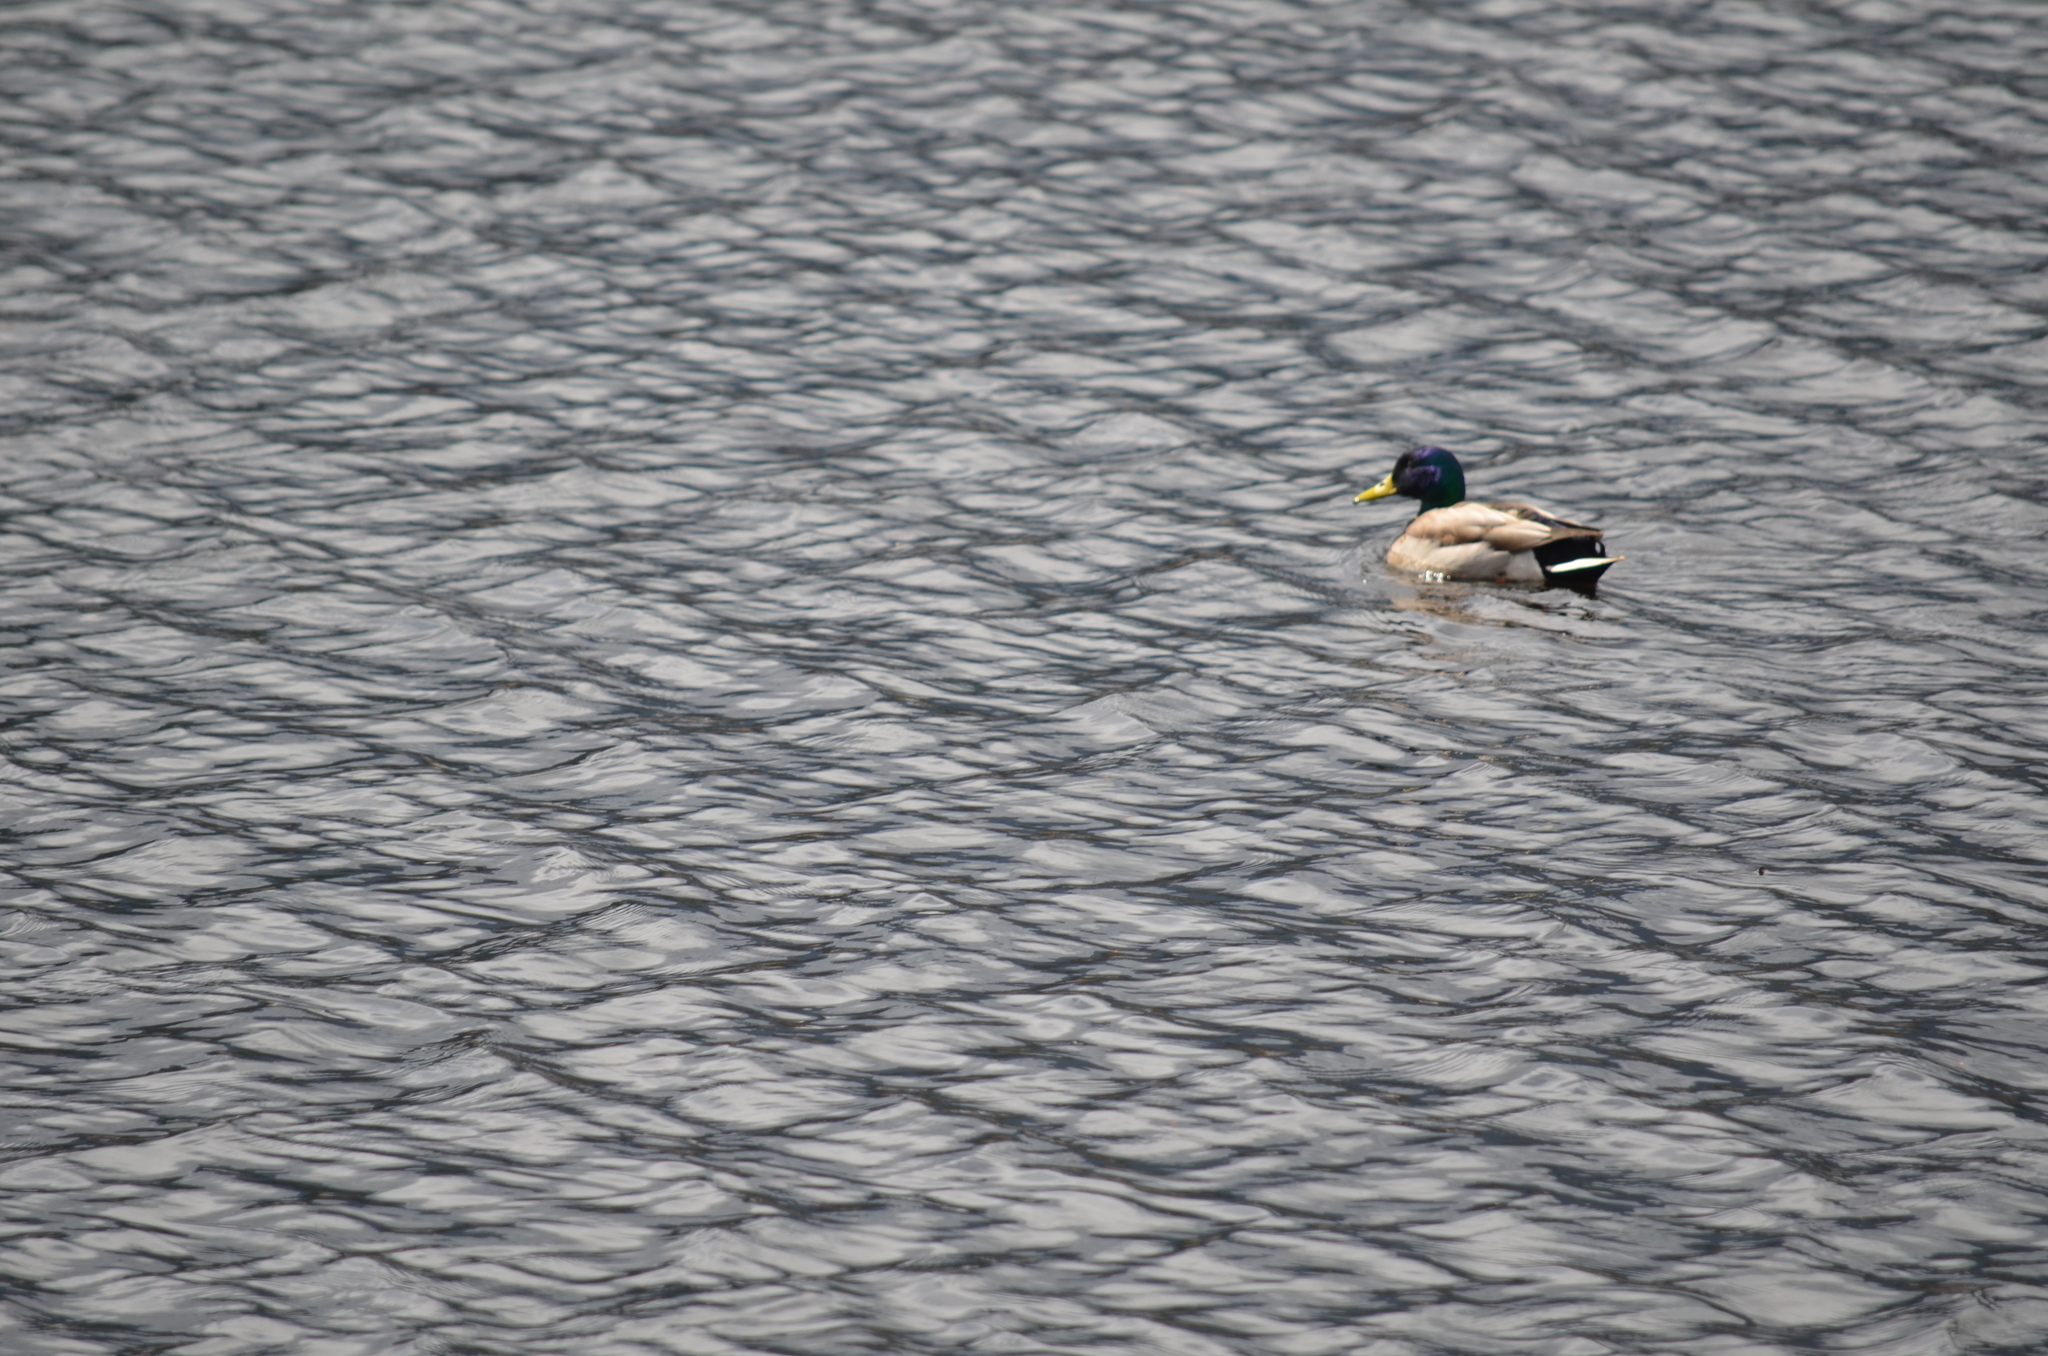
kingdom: Animalia
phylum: Chordata
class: Aves
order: Anseriformes
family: Anatidae
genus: Anas
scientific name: Anas platyrhynchos
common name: Mallard
